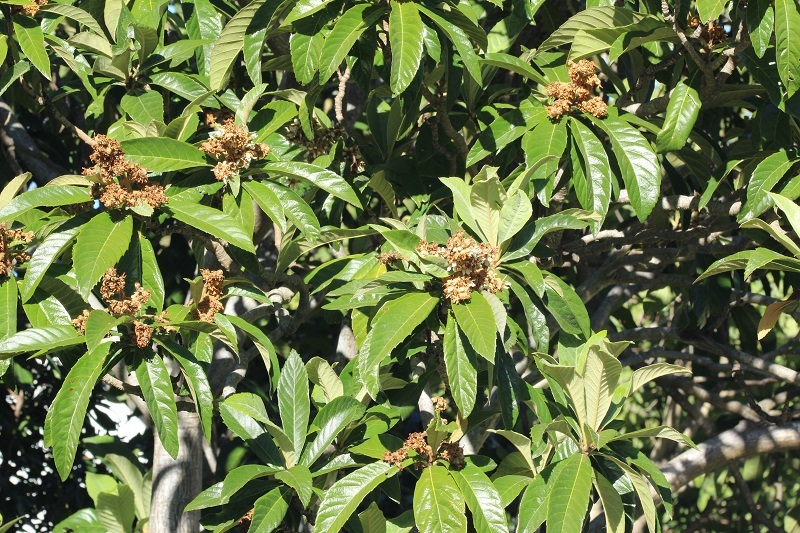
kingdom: Plantae
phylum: Tracheophyta
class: Magnoliopsida
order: Rosales
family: Rosaceae
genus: Rhaphiolepis
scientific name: Rhaphiolepis bibas
